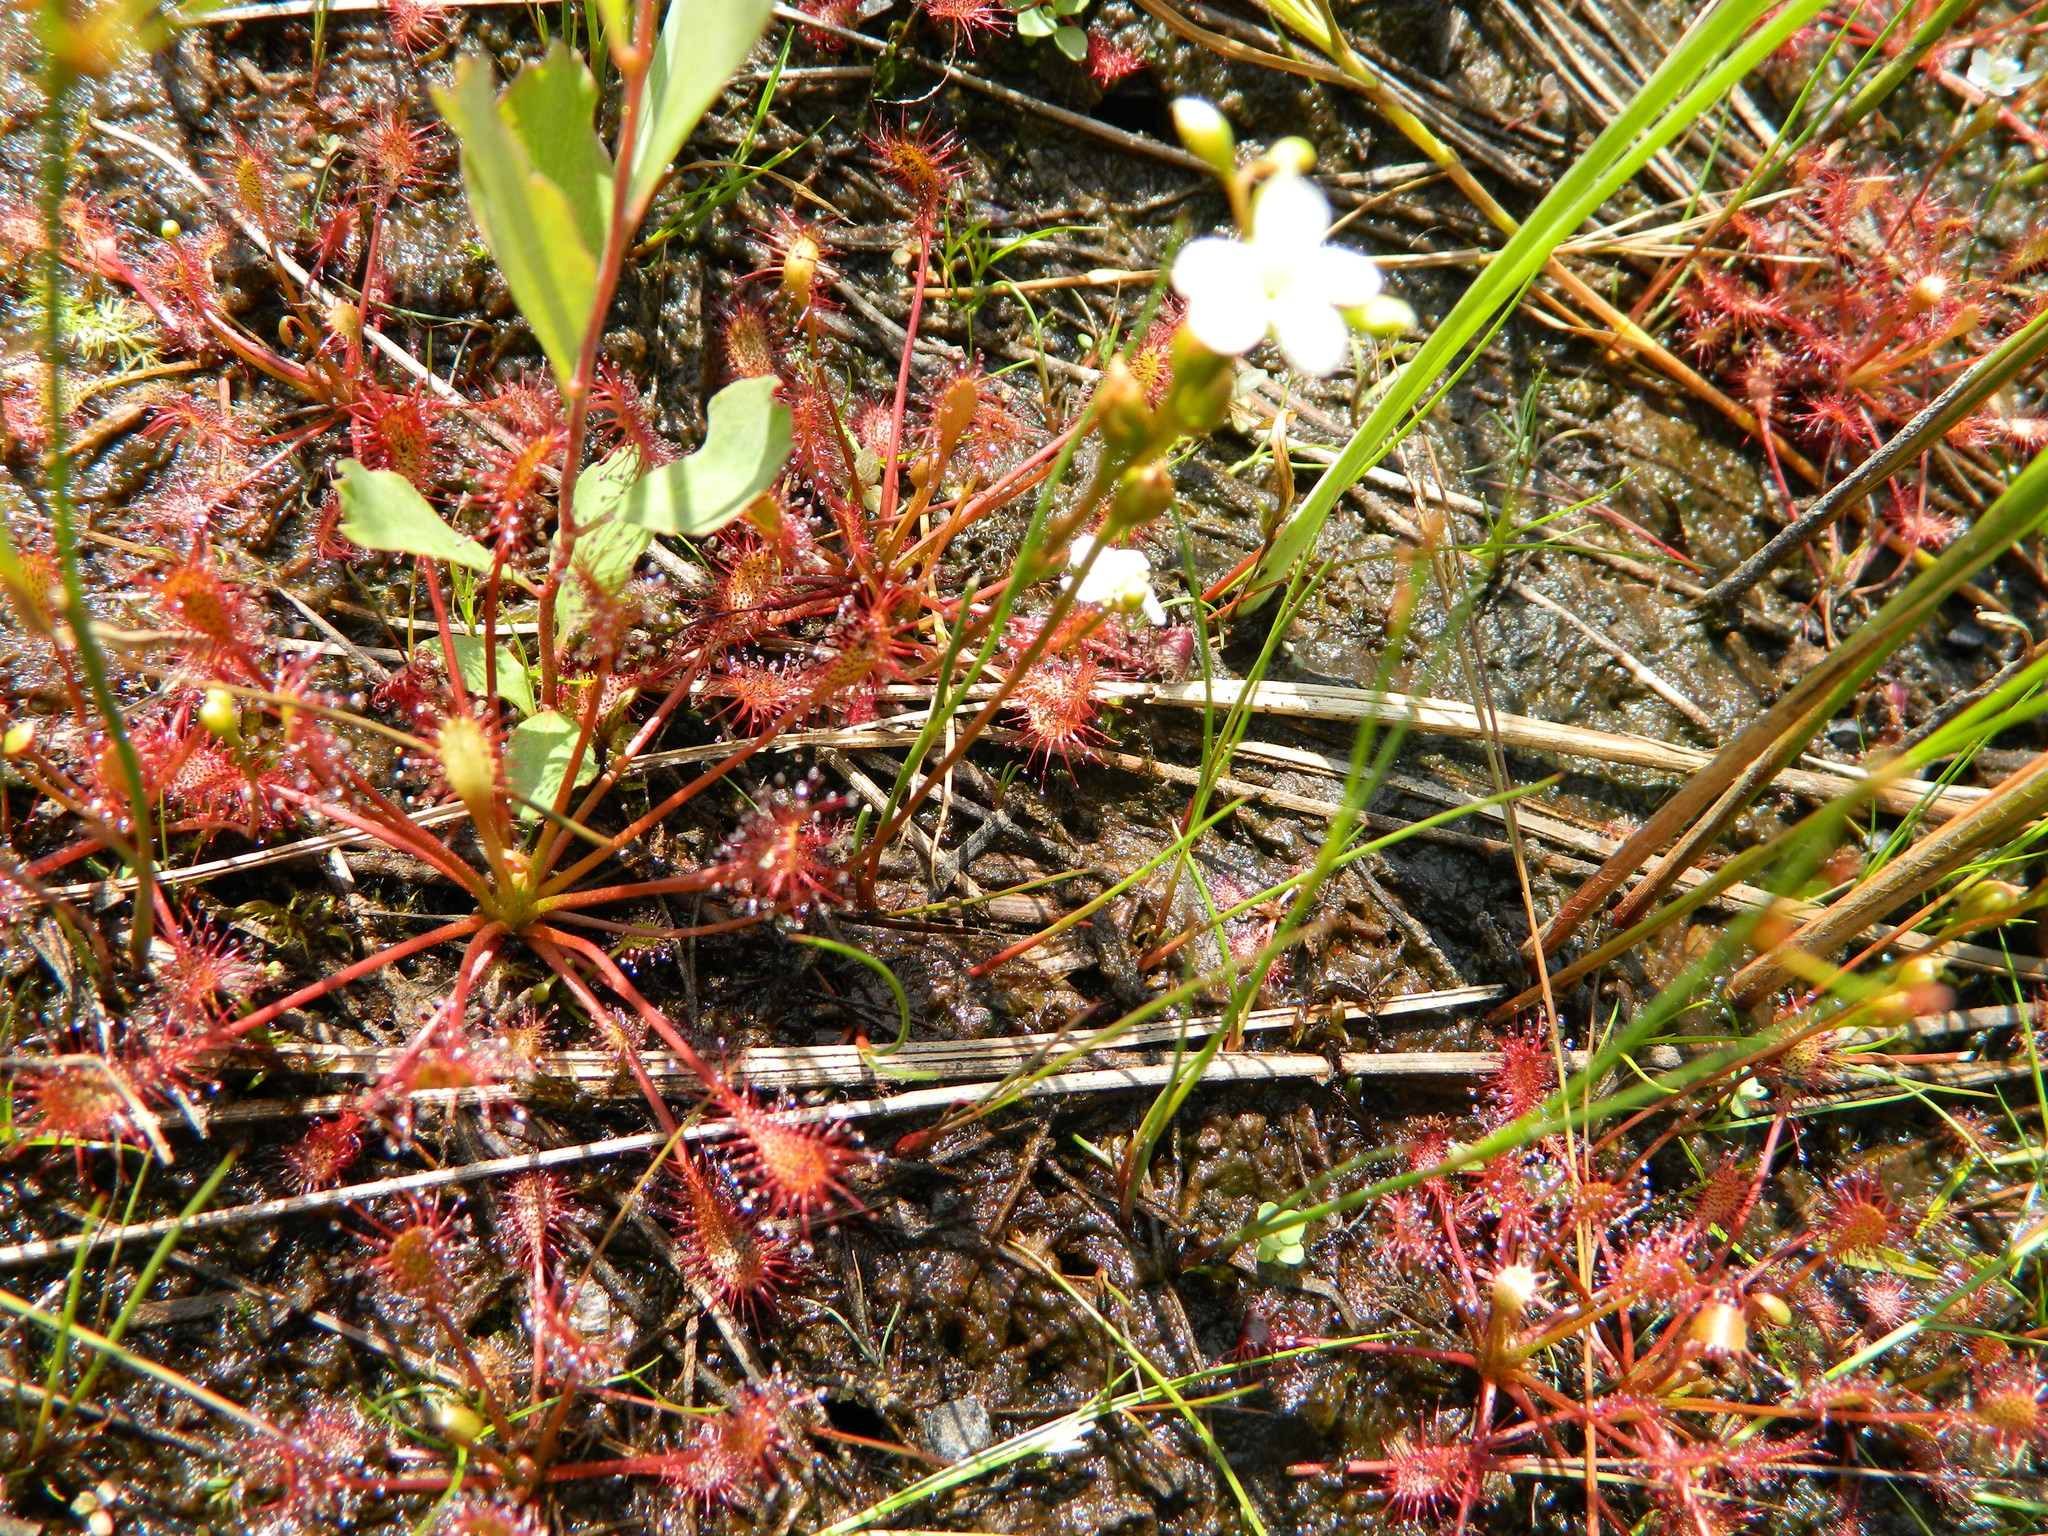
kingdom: Plantae
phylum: Tracheophyta
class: Magnoliopsida
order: Caryophyllales
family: Droseraceae
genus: Drosera
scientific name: Drosera intermedia
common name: Oblong-leaved sundew
